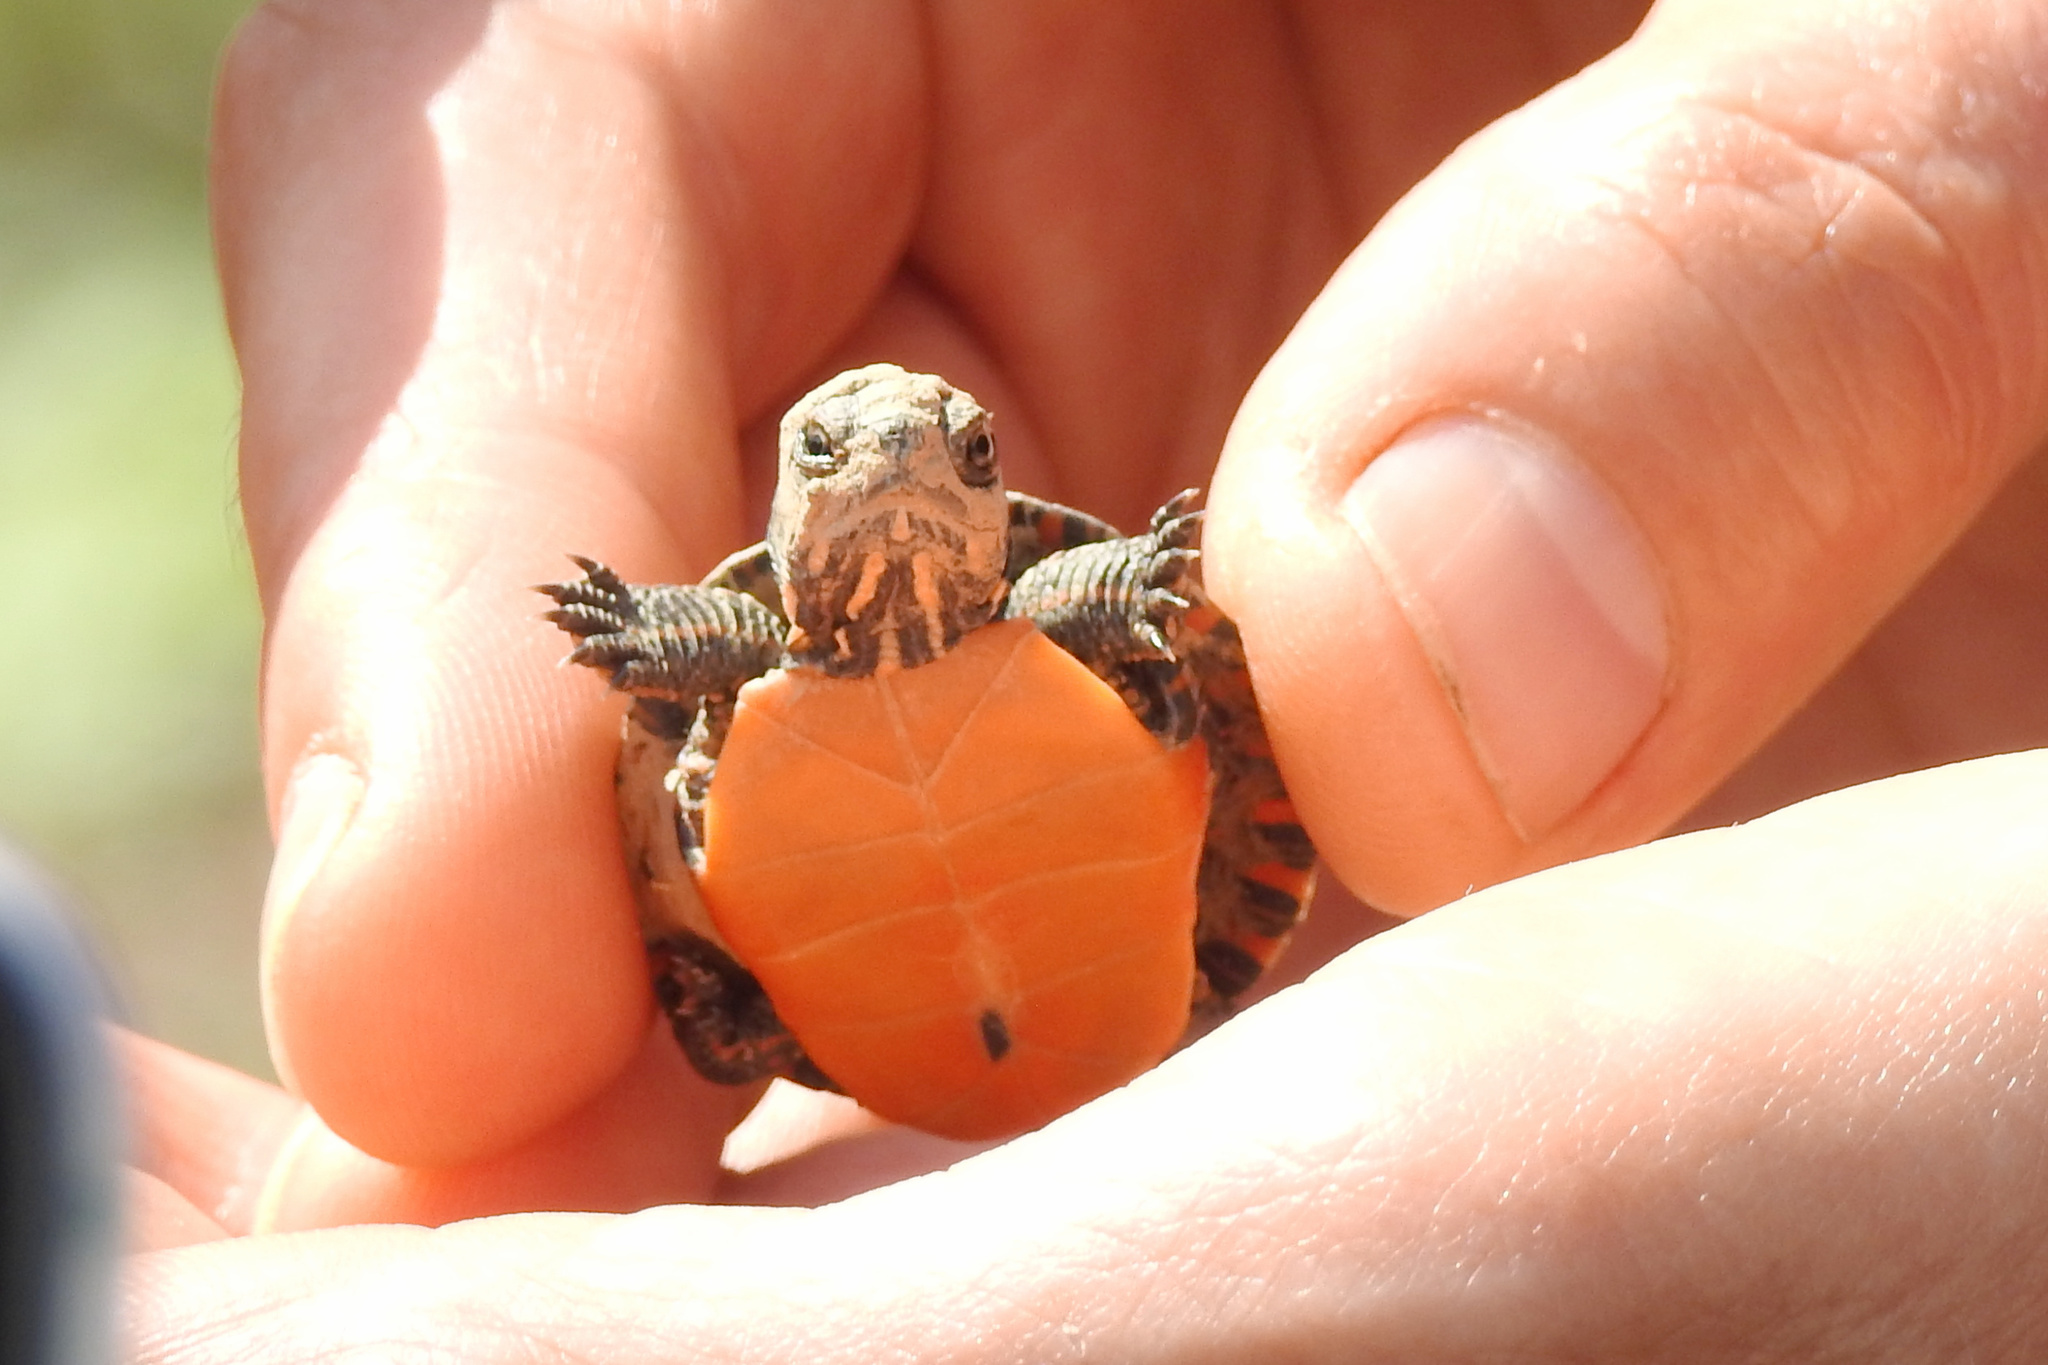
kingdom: Animalia
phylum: Chordata
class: Testudines
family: Emydidae
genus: Chrysemys
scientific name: Chrysemys picta
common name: Painted turtle
